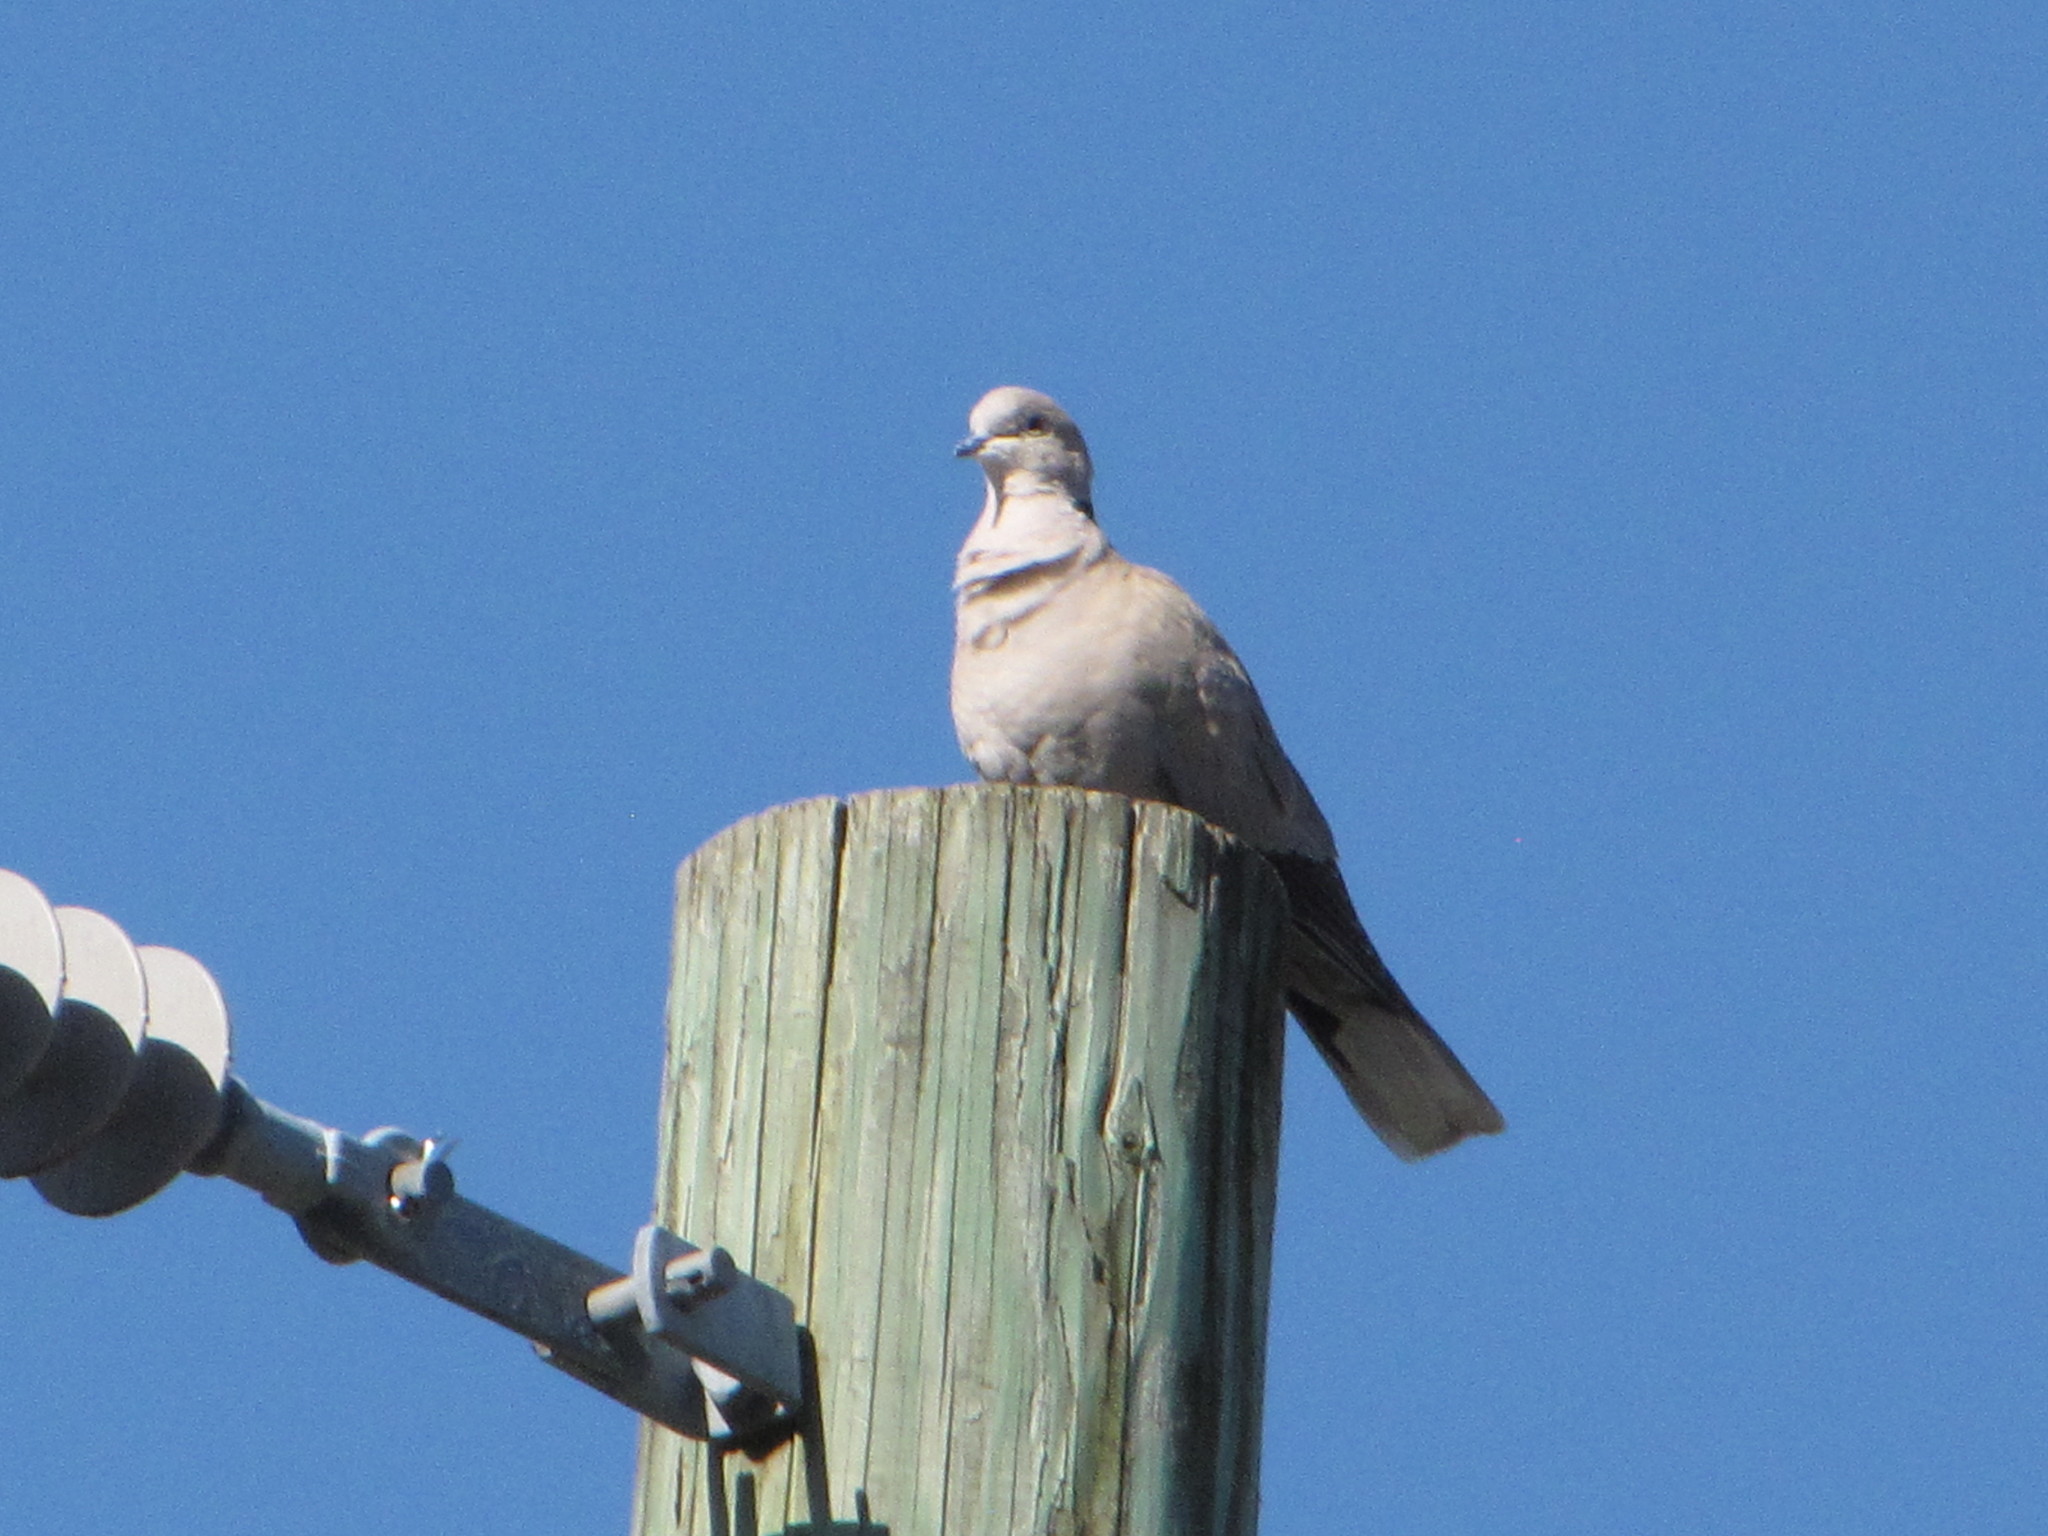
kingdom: Animalia
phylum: Chordata
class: Aves
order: Columbiformes
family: Columbidae
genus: Streptopelia
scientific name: Streptopelia decaocto
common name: Eurasian collared dove
